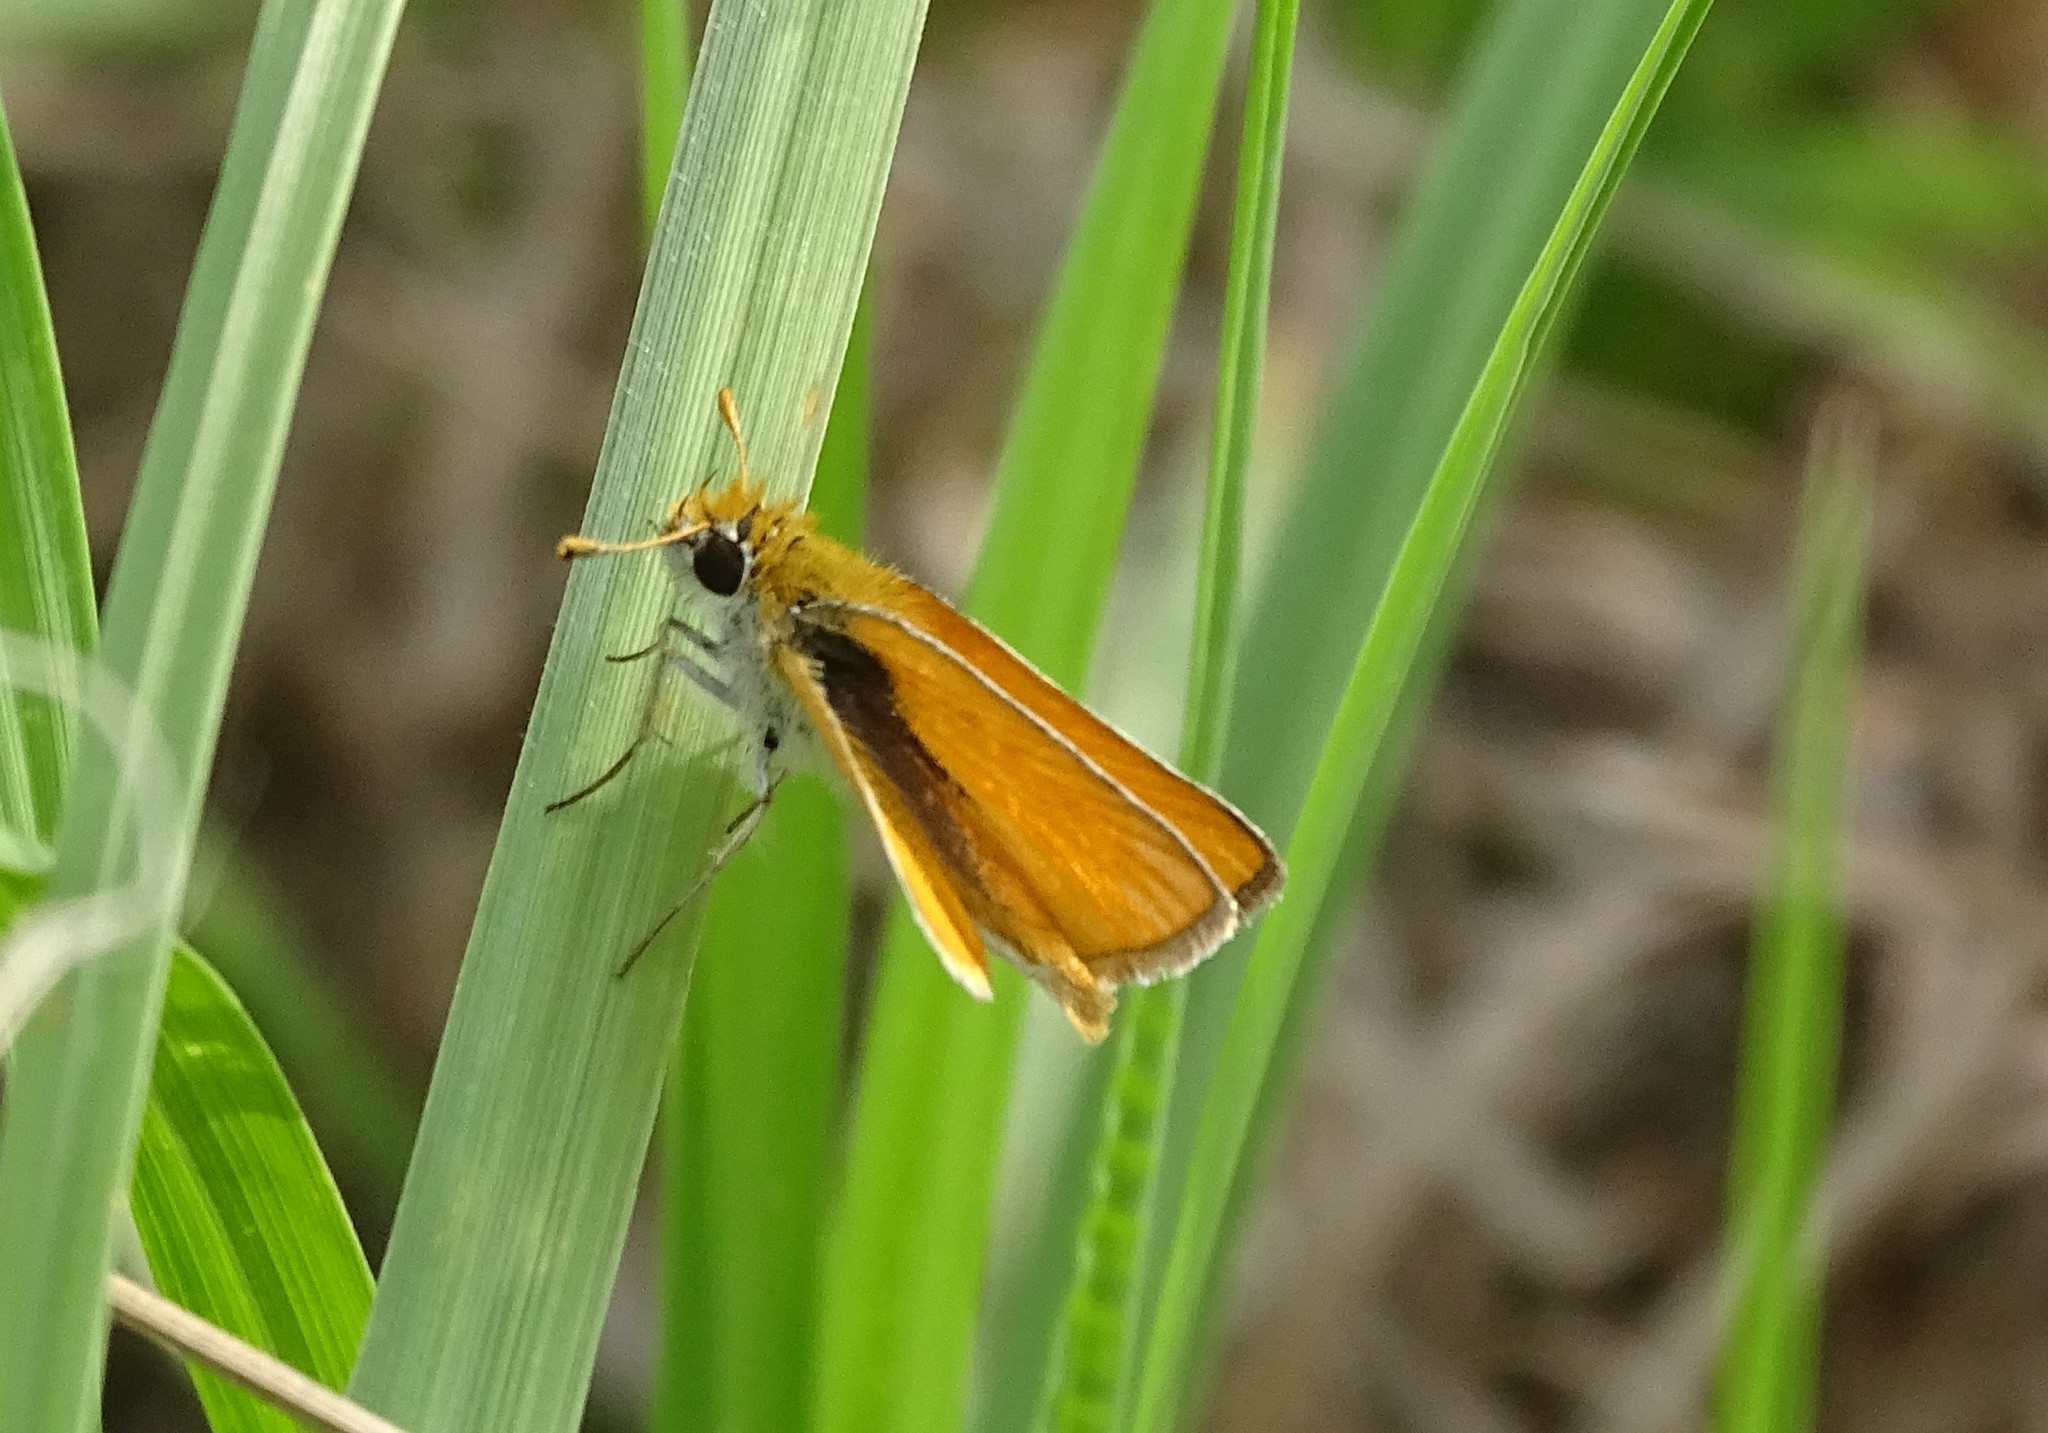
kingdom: Animalia
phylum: Arthropoda
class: Insecta
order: Lepidoptera
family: Hesperiidae
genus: Copaeodes
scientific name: Copaeodes minima
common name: Southern skipperling
